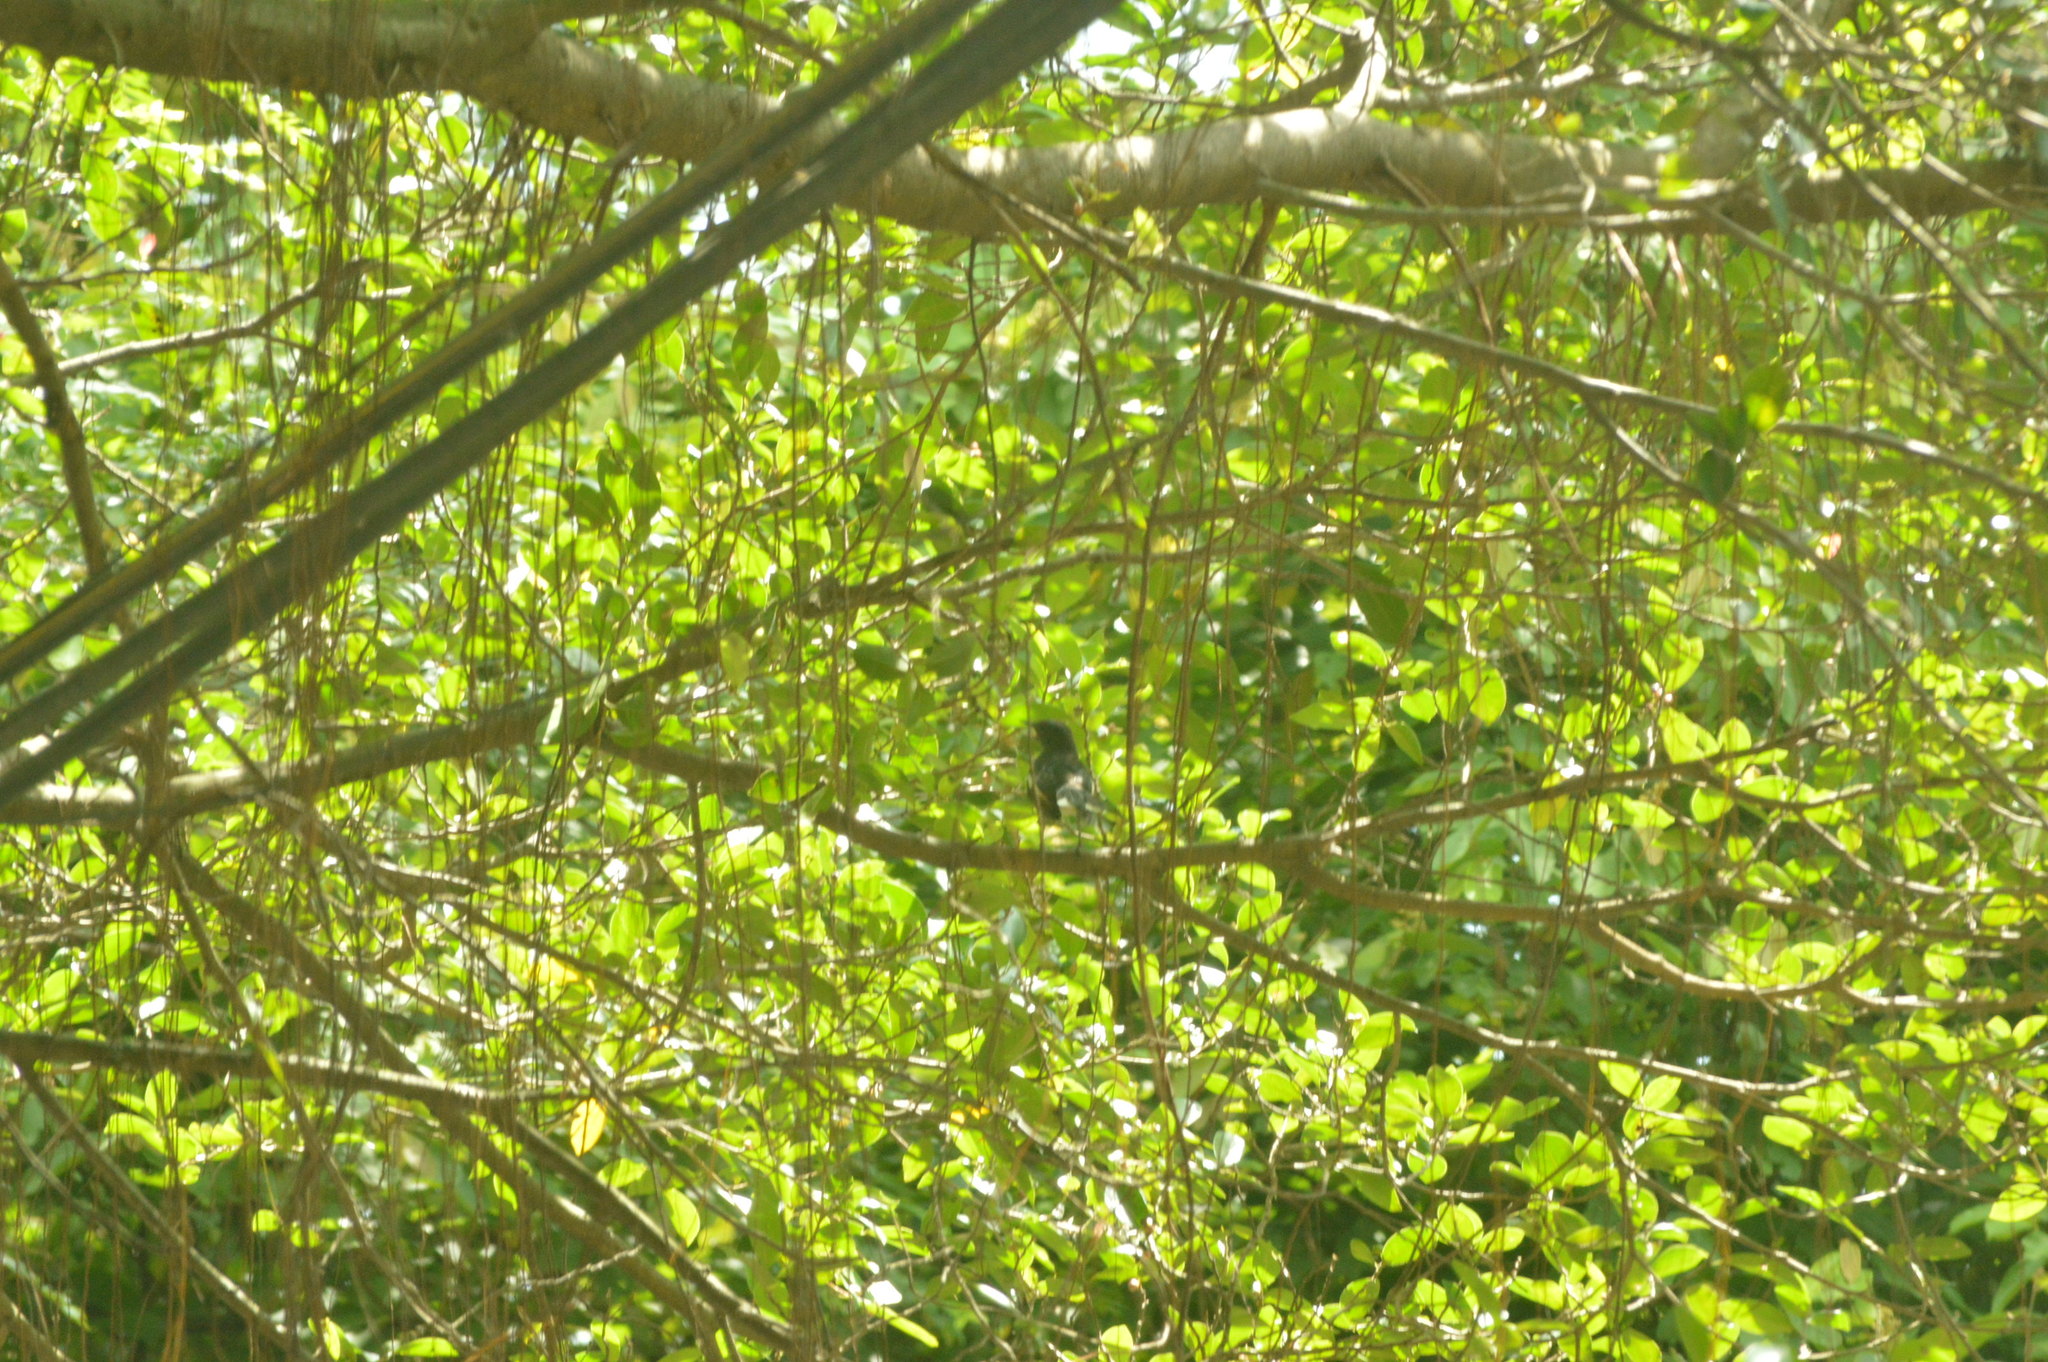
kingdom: Animalia
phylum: Chordata
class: Aves
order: Passeriformes
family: Muscicapidae
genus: Copsychus
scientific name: Copsychus saularis
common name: Oriental magpie-robin
